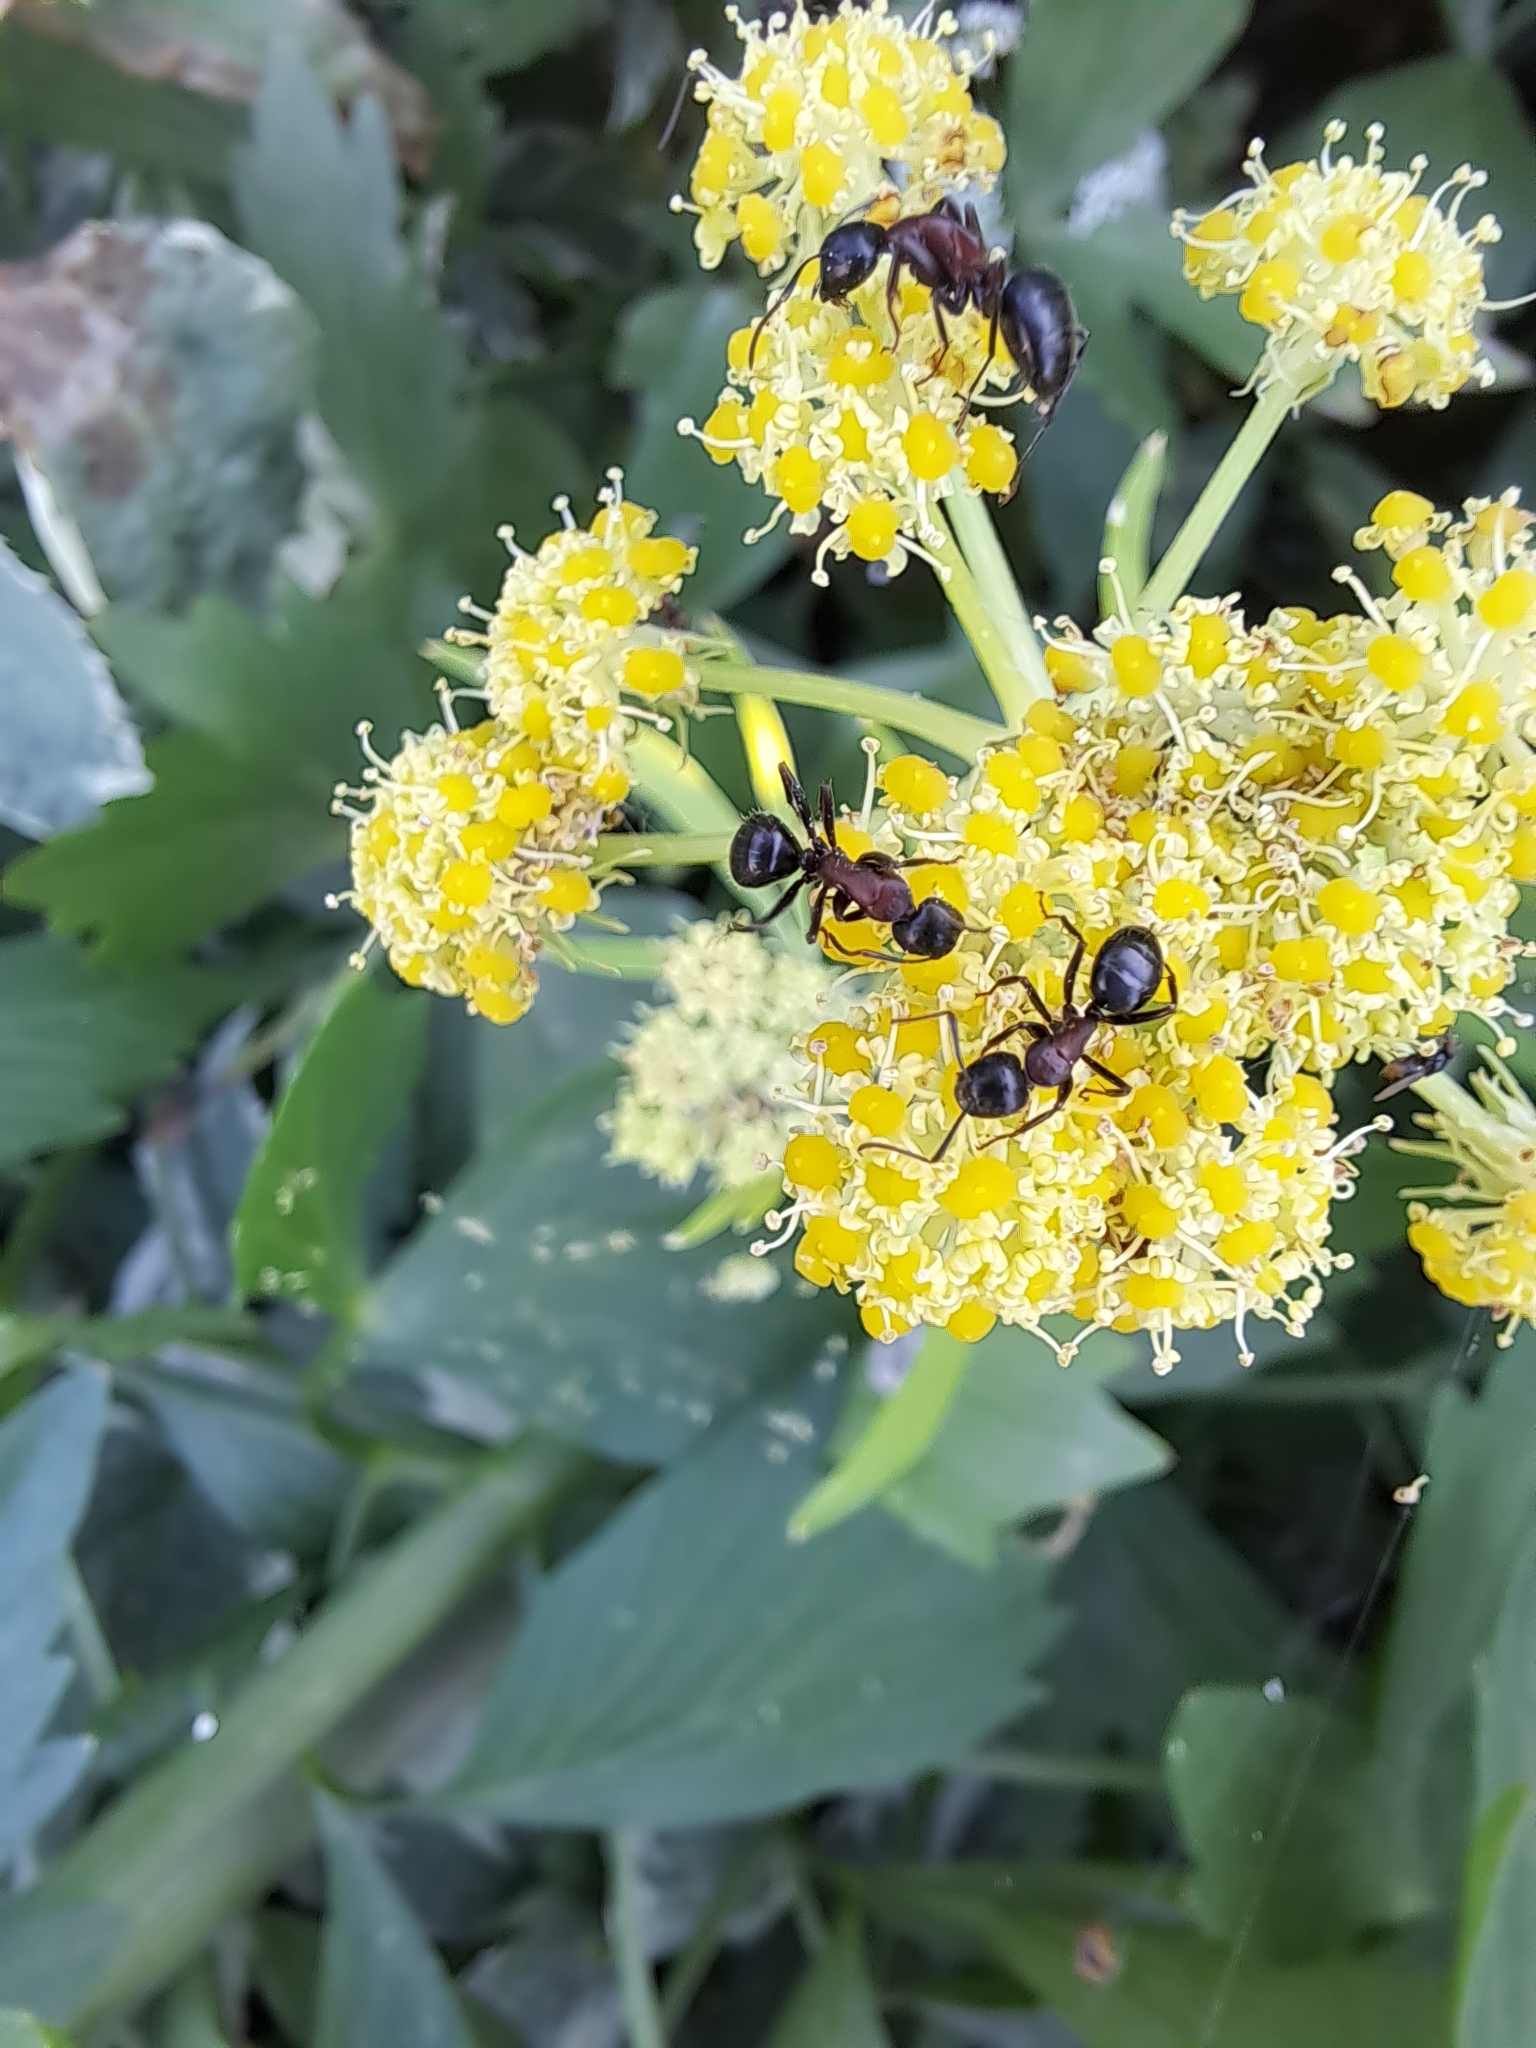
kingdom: Animalia
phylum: Arthropoda
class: Insecta
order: Hymenoptera
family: Formicidae
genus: Camponotus
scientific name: Camponotus novaeboracensis
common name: New york carpenter ant
